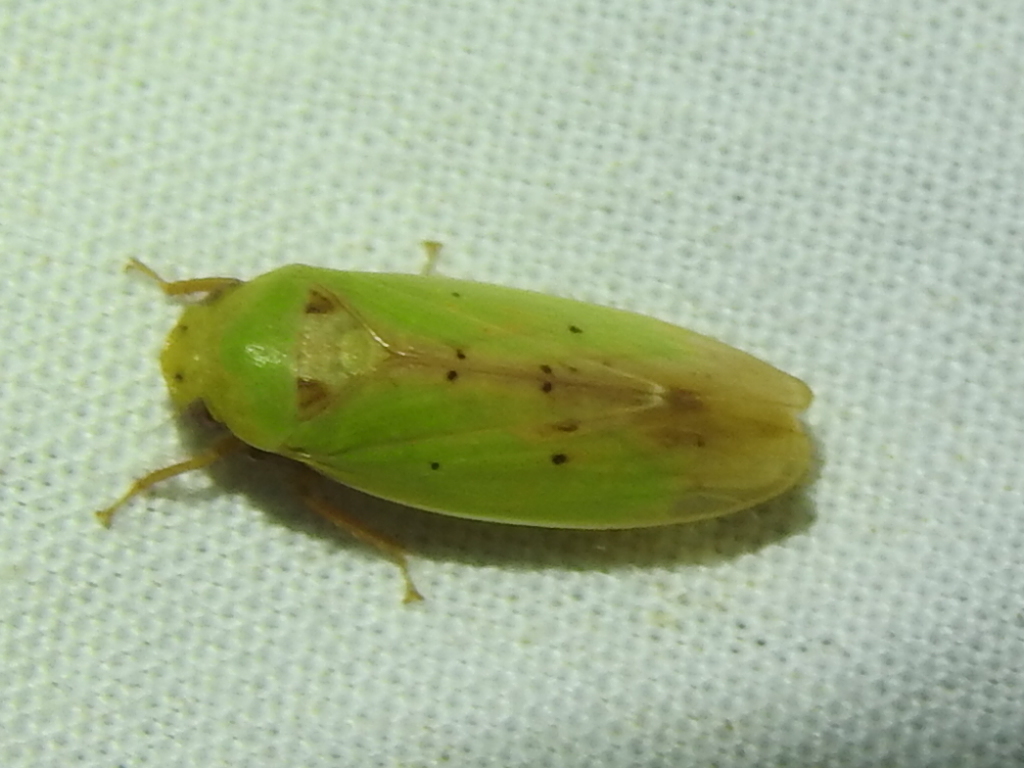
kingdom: Animalia
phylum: Arthropoda
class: Insecta
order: Hemiptera
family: Cicadellidae
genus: Ponana
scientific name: Ponana
